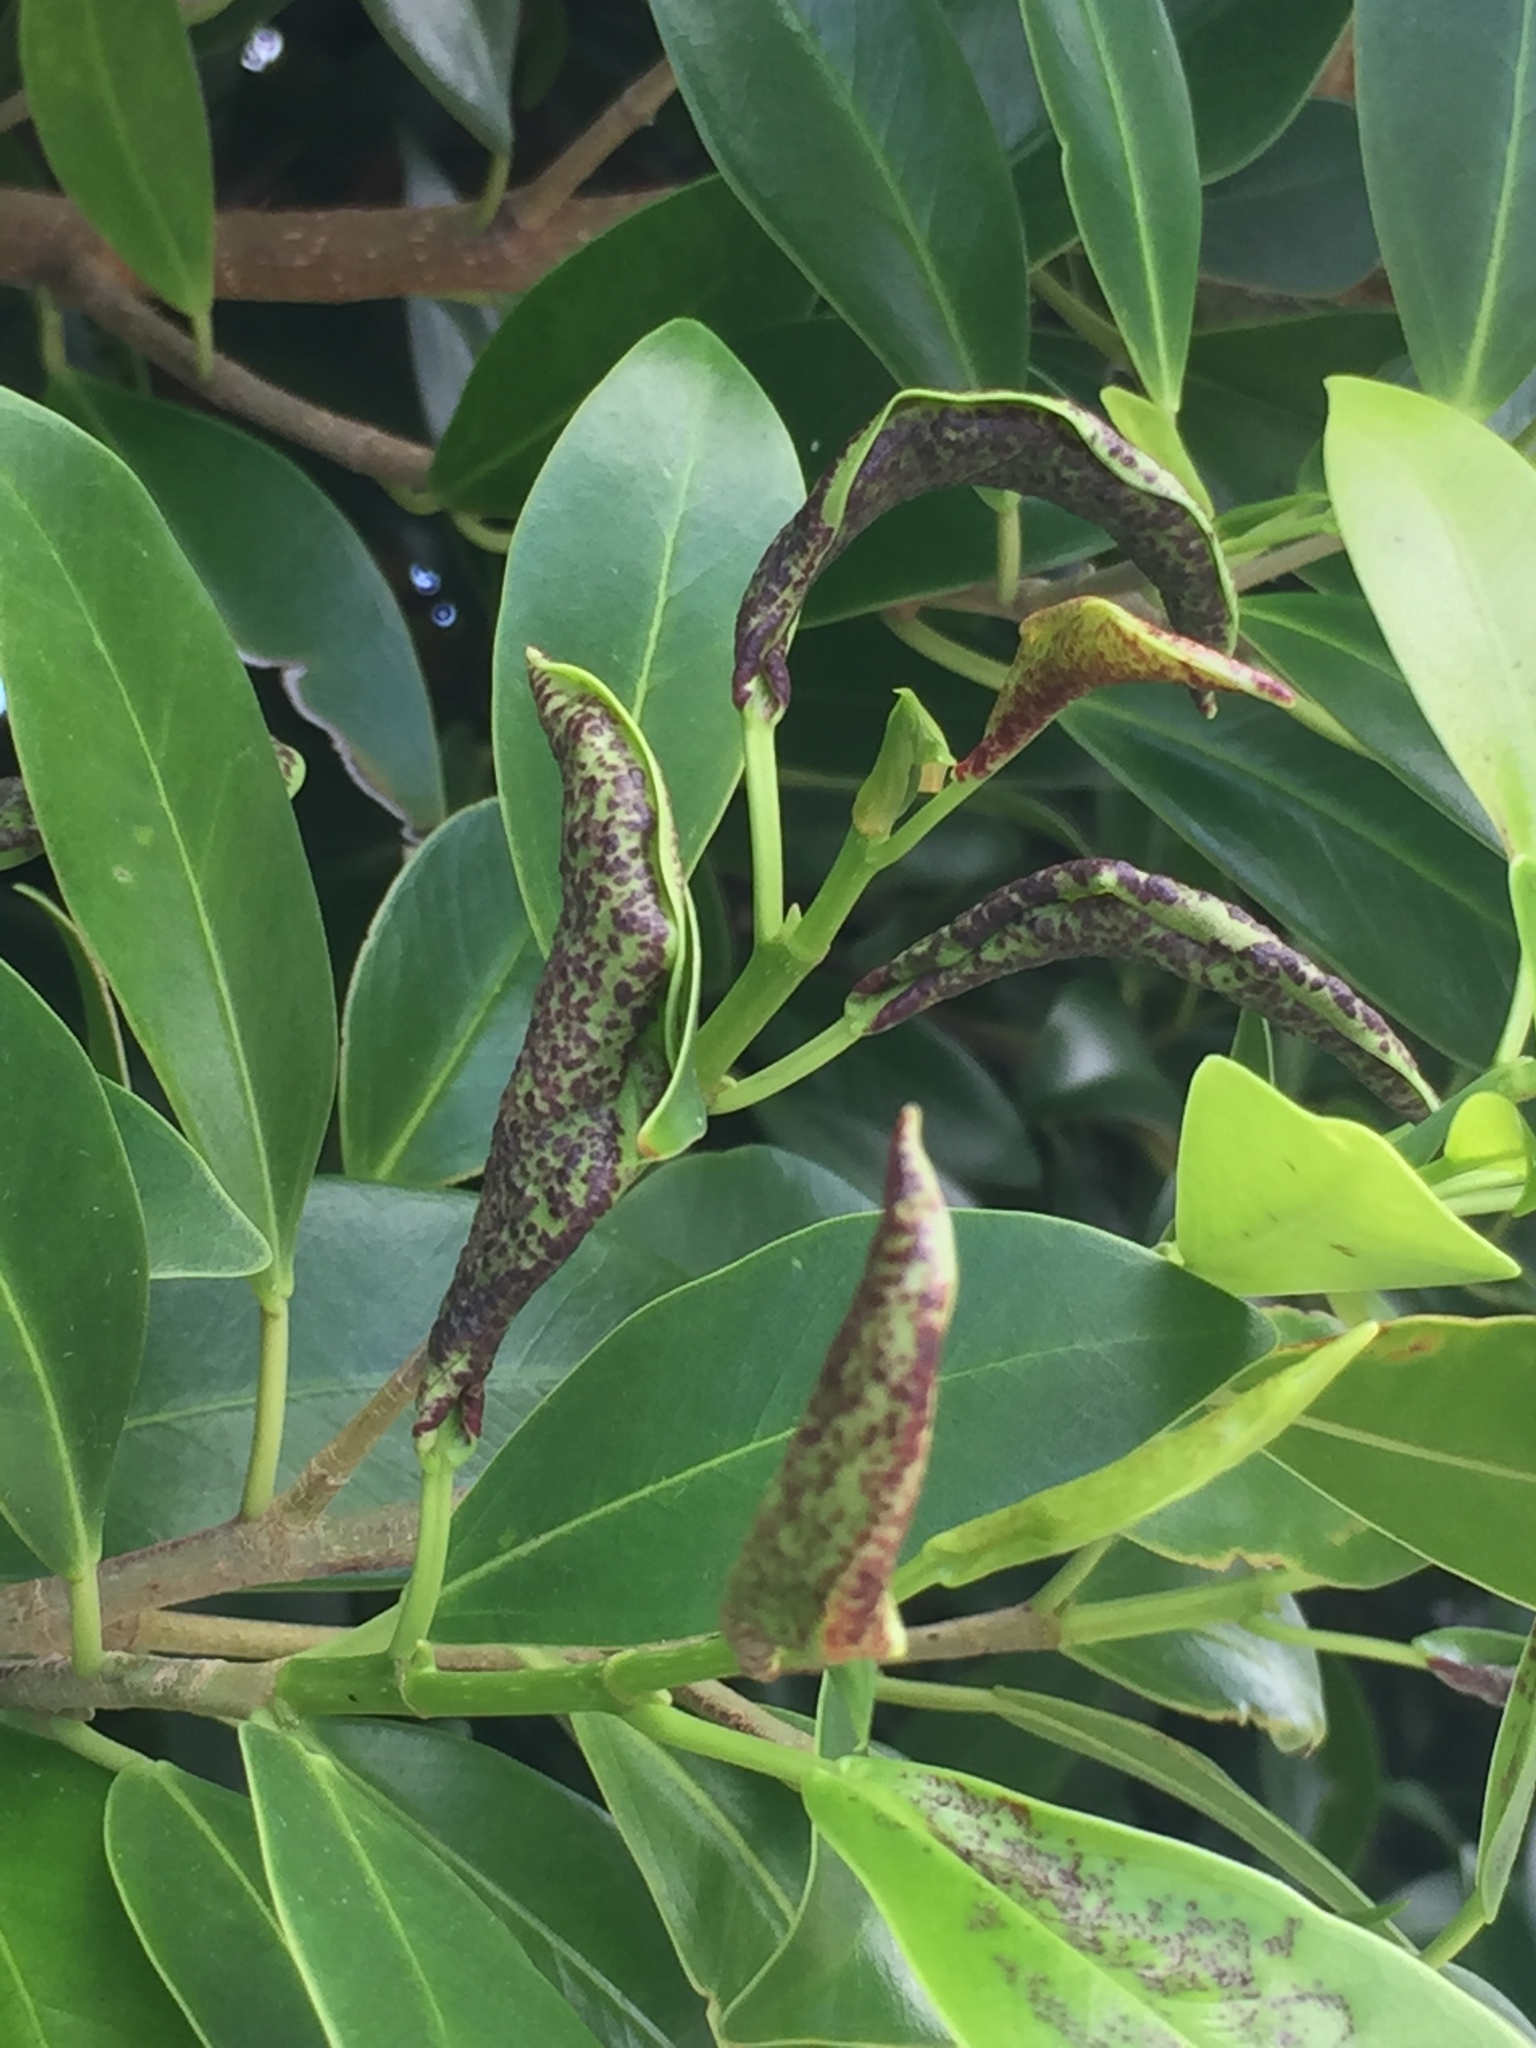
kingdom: Animalia
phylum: Arthropoda
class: Insecta
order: Thysanoptera
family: Phlaeothripidae
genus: Gynaikothrips
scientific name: Gynaikothrips ficorum
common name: Cuban laurel thrips
